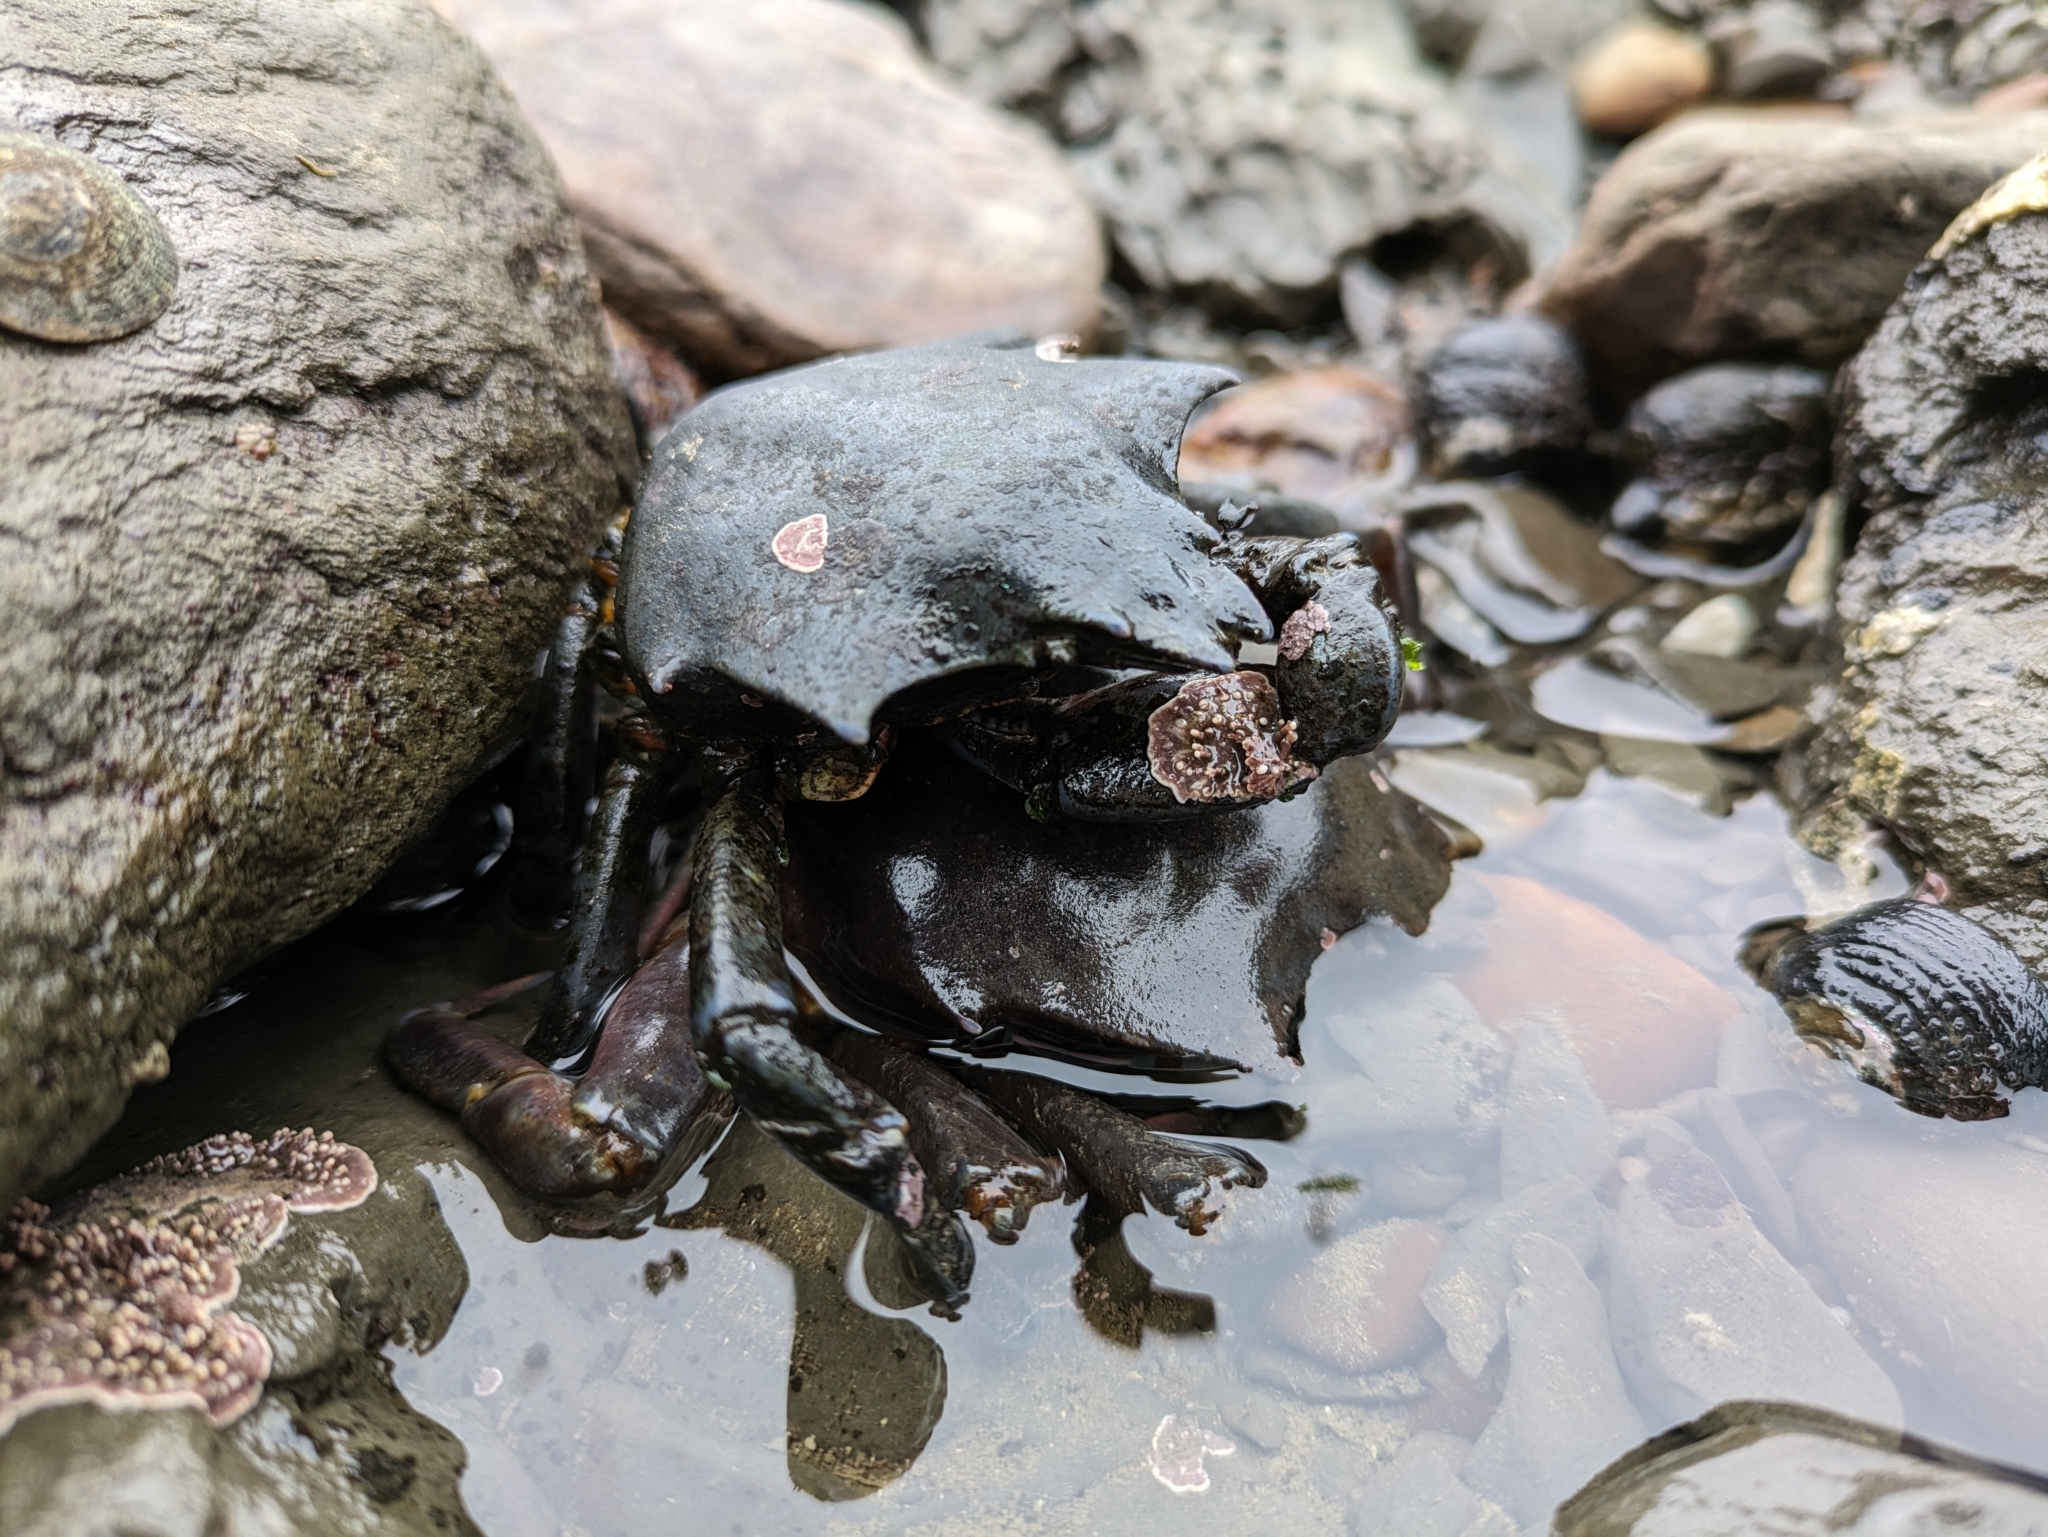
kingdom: Animalia
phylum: Arthropoda
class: Malacostraca
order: Decapoda
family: Epialtidae
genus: Pugettia
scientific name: Pugettia producta
